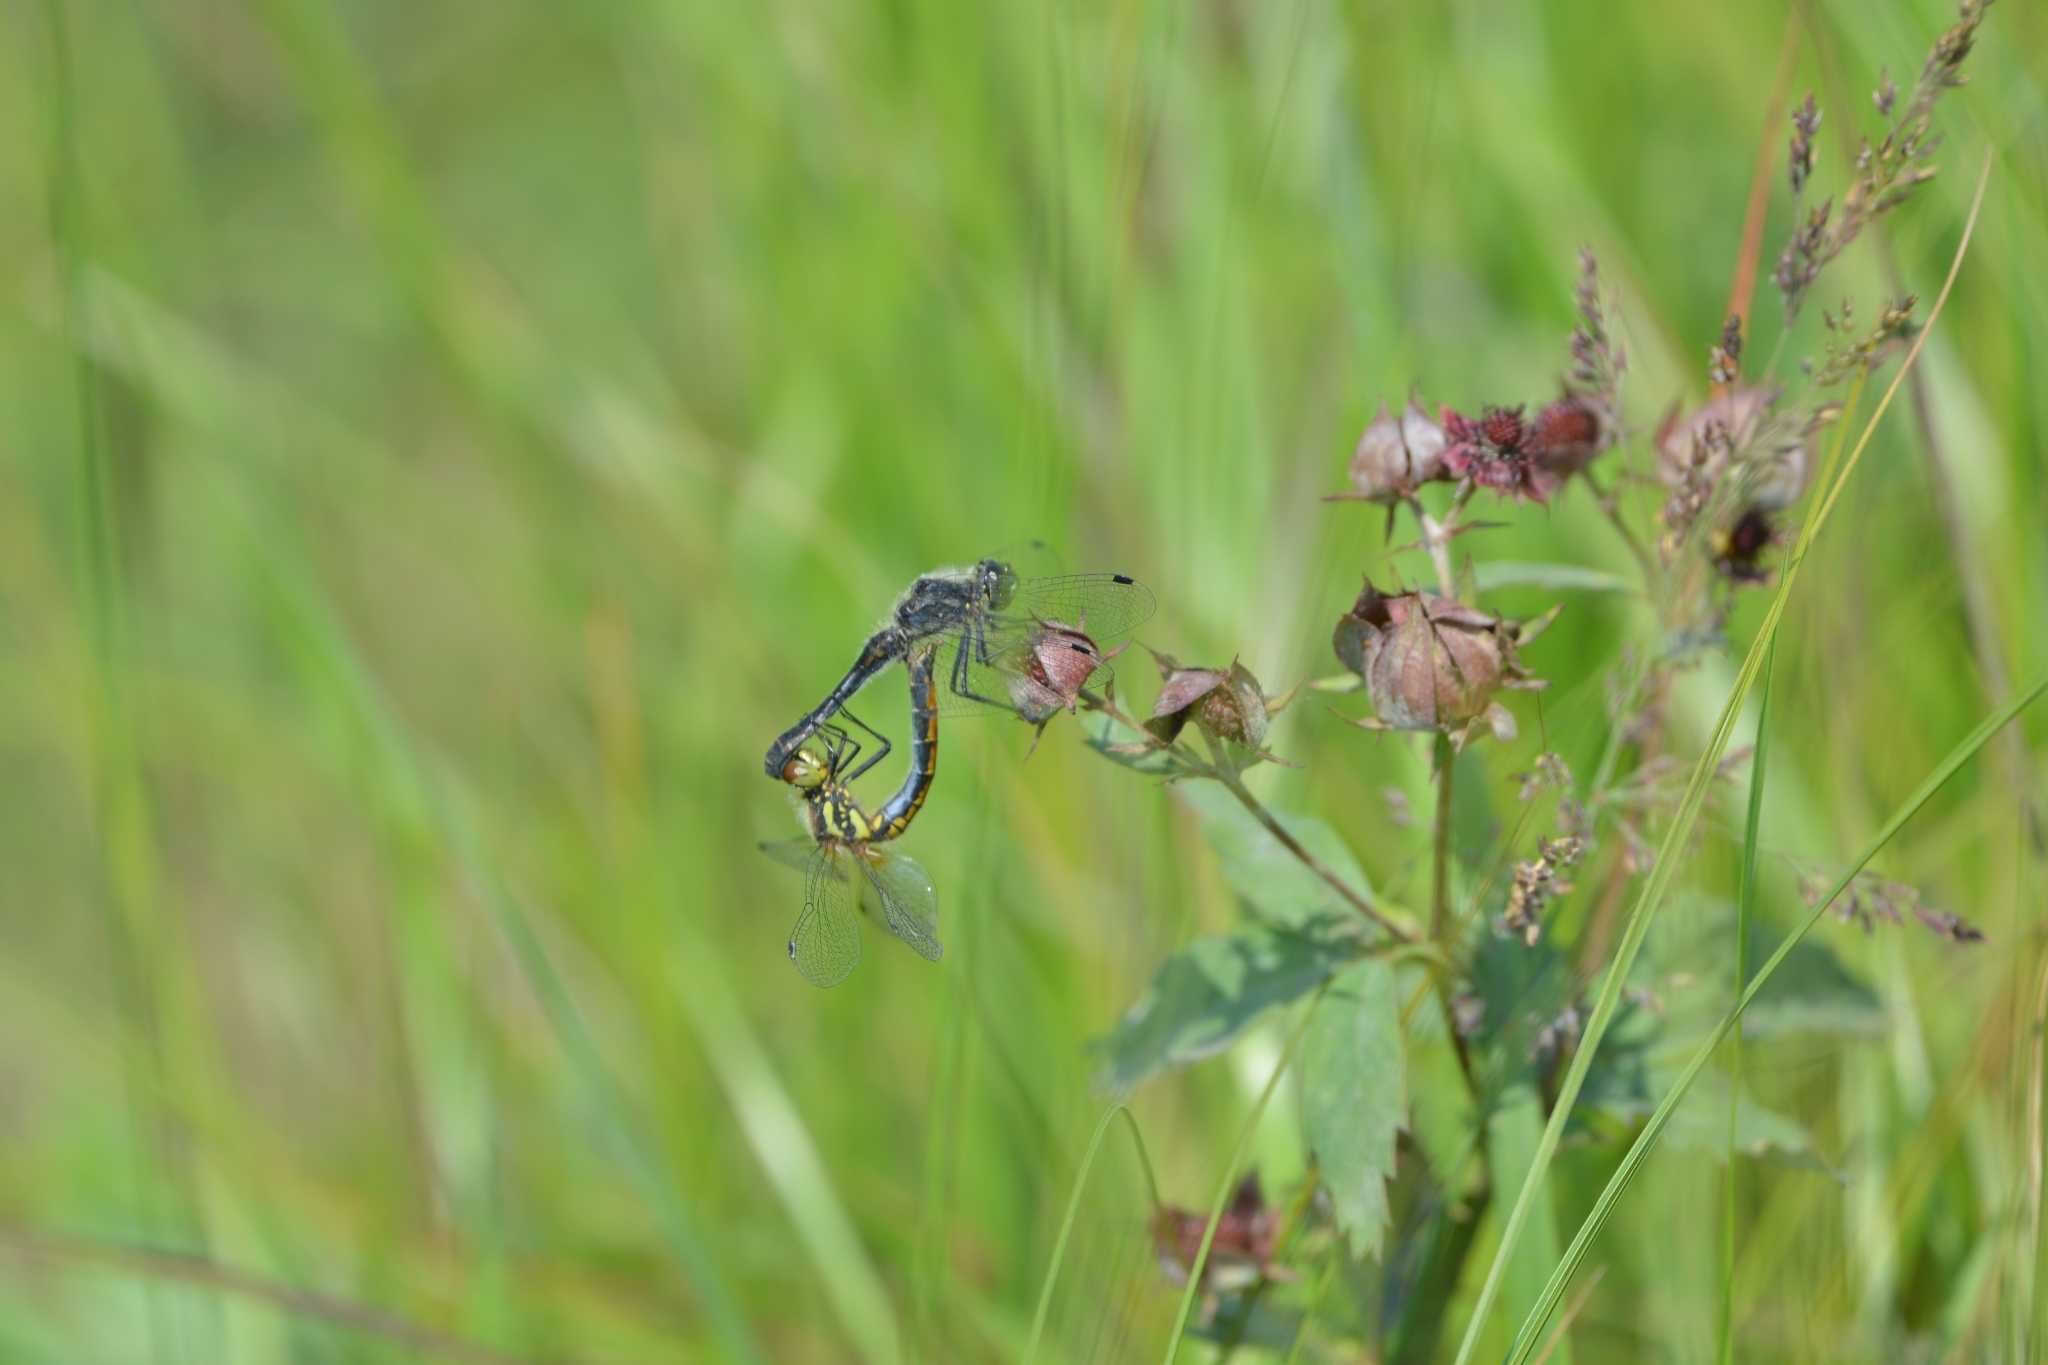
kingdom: Animalia
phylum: Arthropoda
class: Insecta
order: Odonata
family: Libellulidae
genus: Sympetrum
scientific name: Sympetrum danae
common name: Black darter
